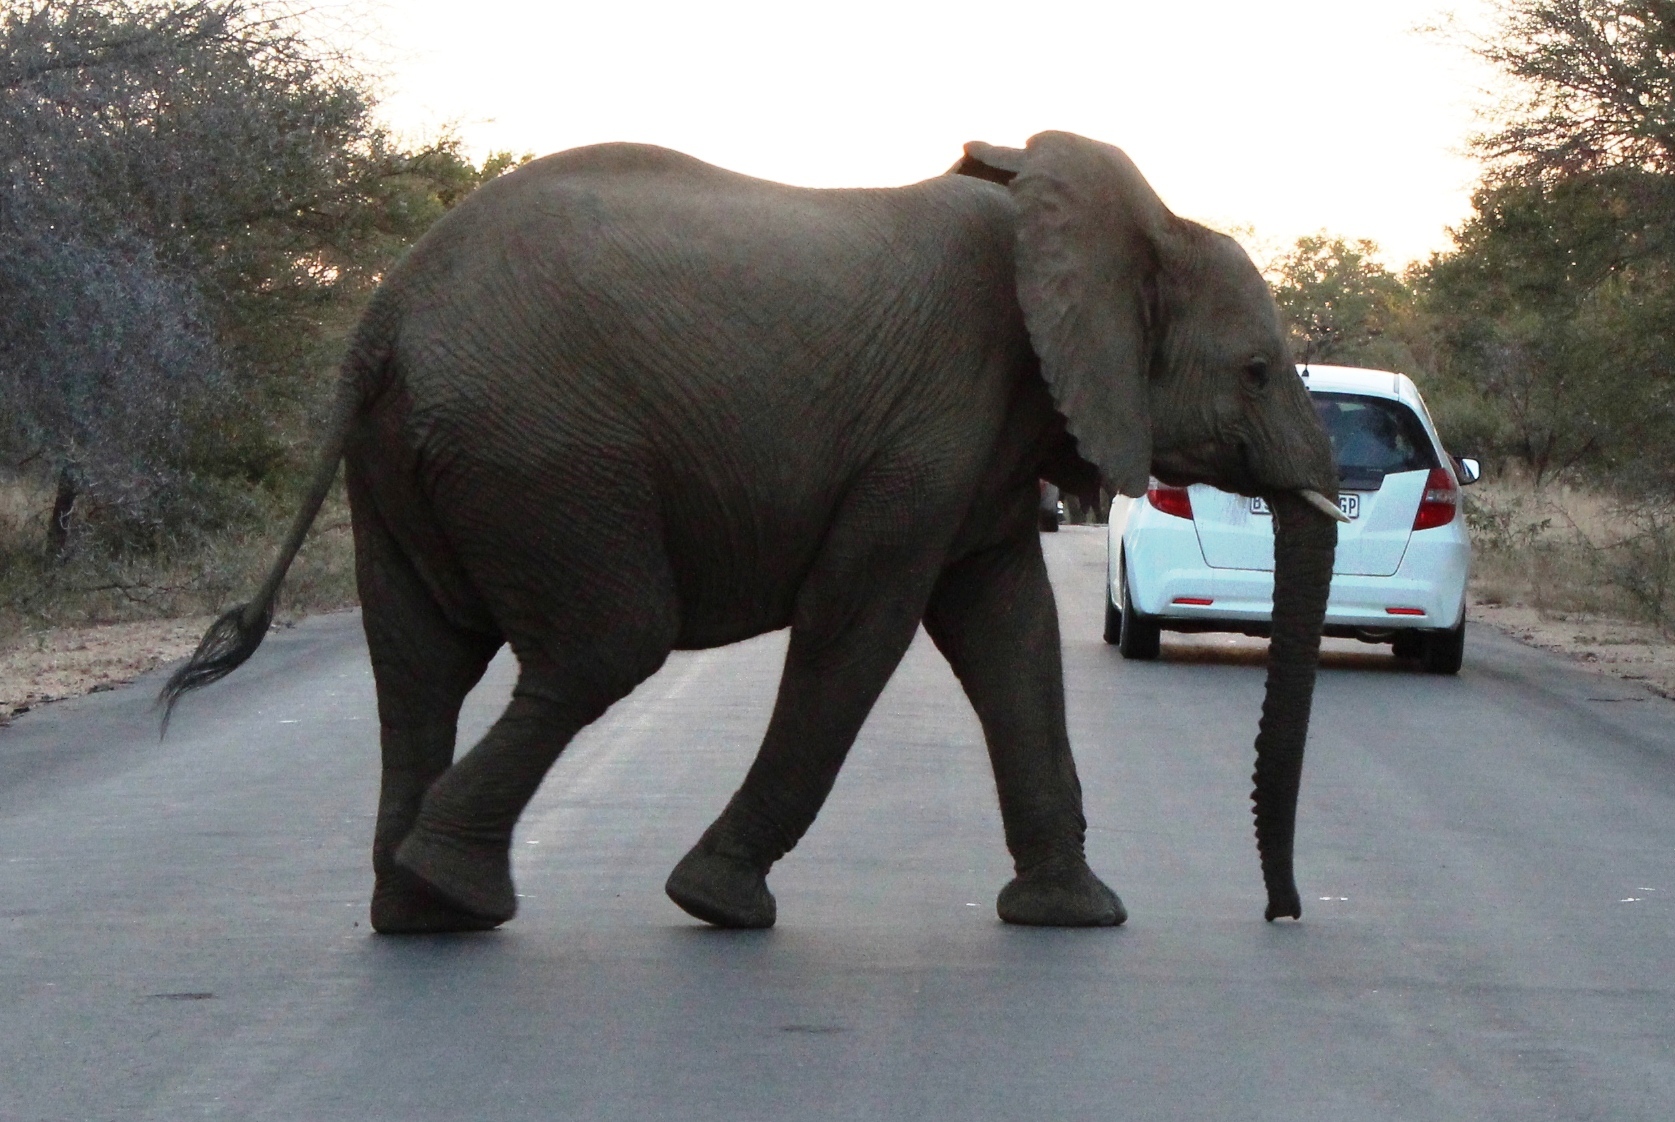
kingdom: Animalia
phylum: Chordata
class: Mammalia
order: Proboscidea
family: Elephantidae
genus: Loxodonta
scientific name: Loxodonta africana
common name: African elephant
